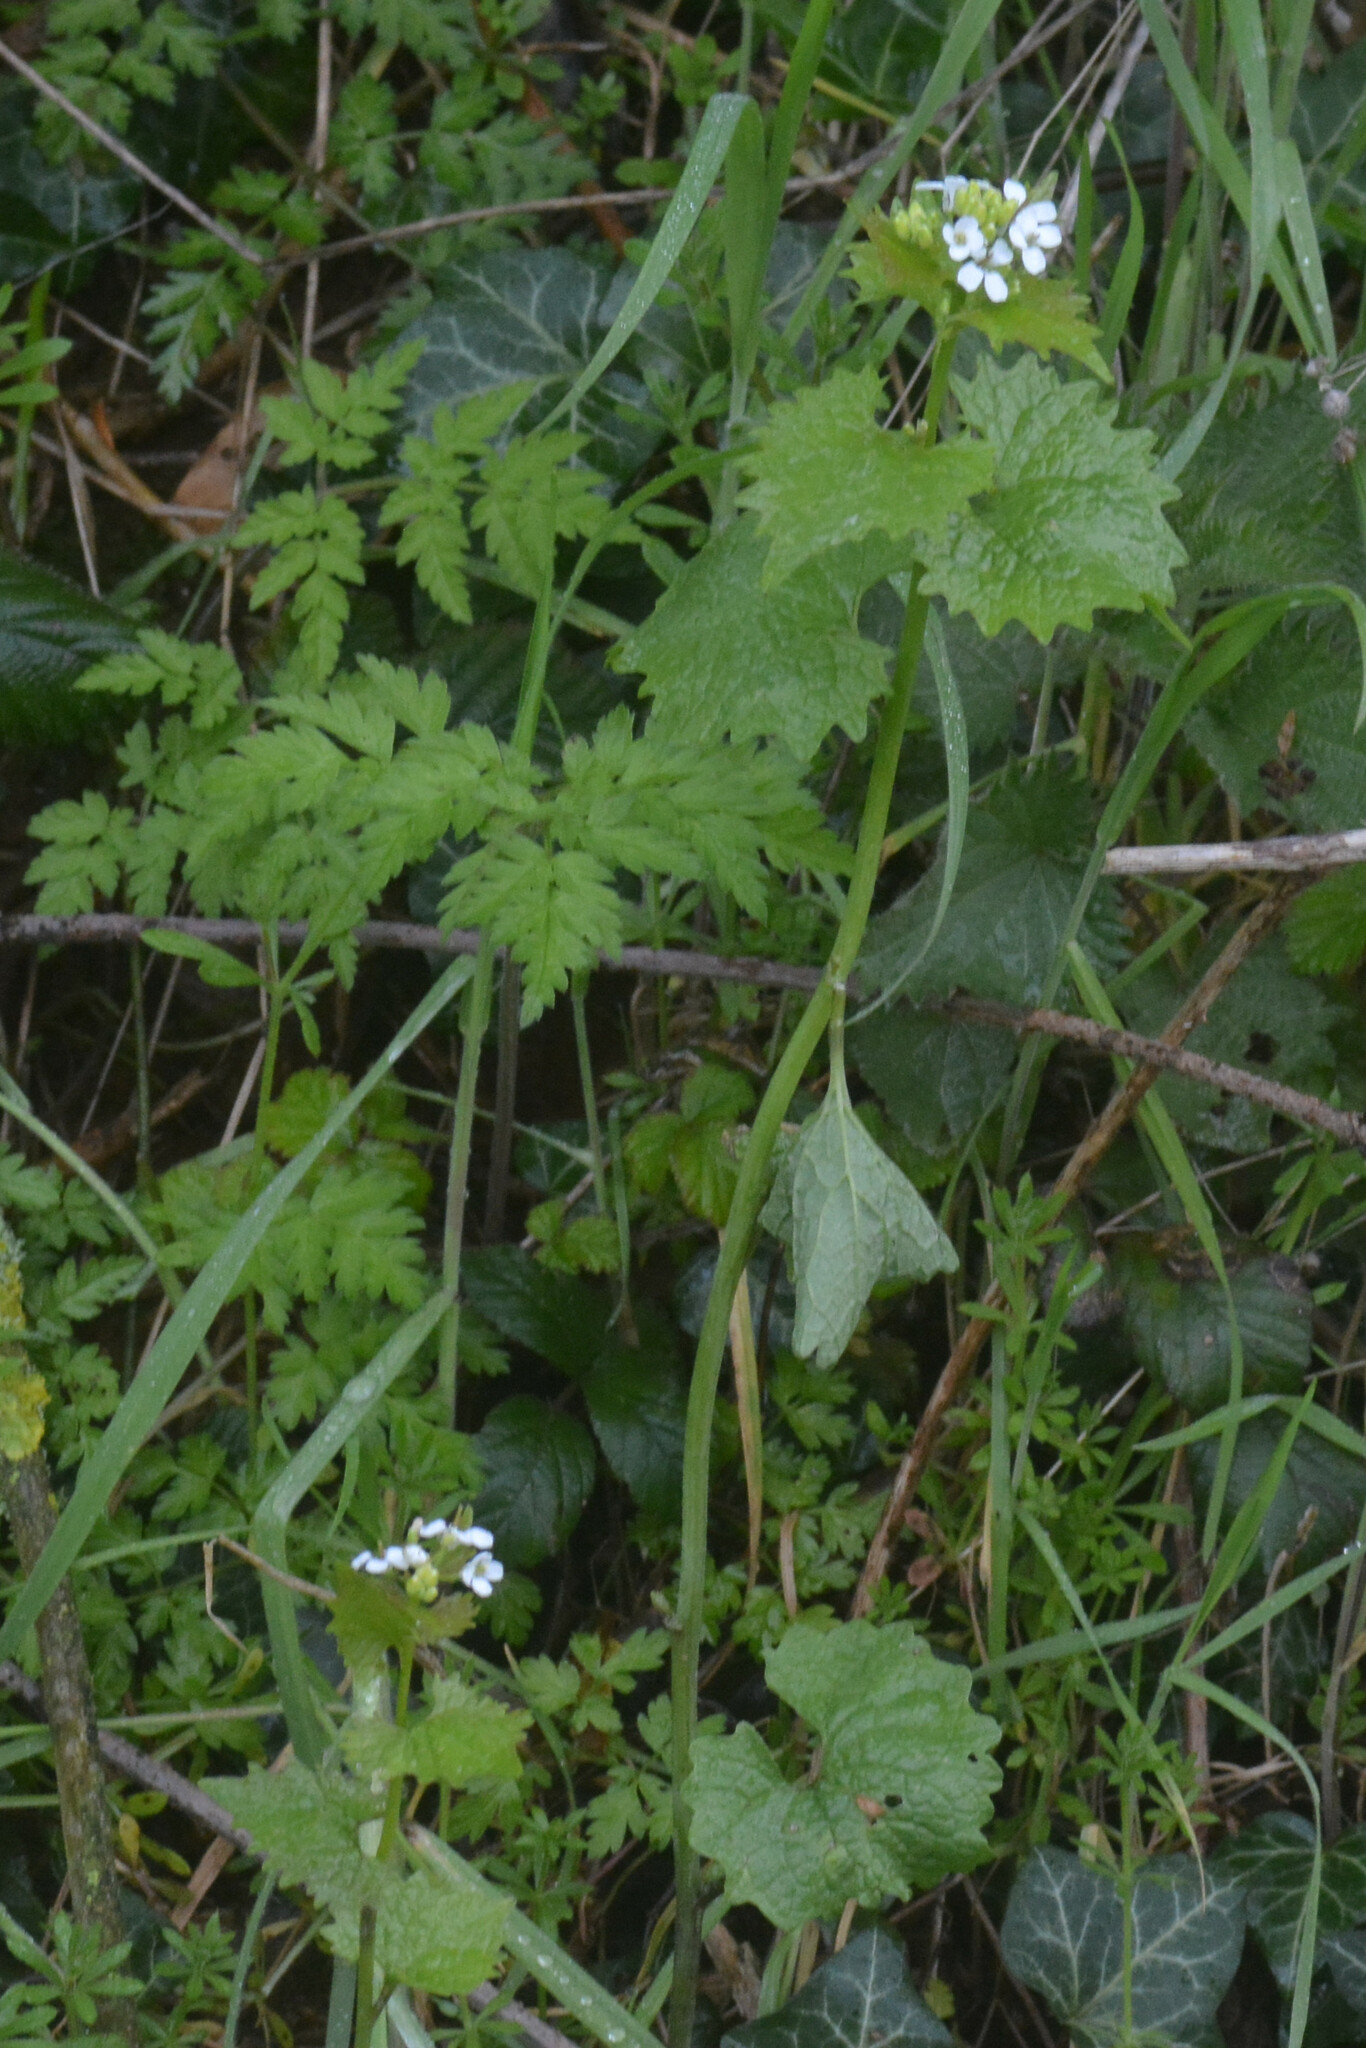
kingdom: Plantae
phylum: Tracheophyta
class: Magnoliopsida
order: Brassicales
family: Brassicaceae
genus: Alliaria
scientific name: Alliaria petiolata
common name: Garlic mustard
